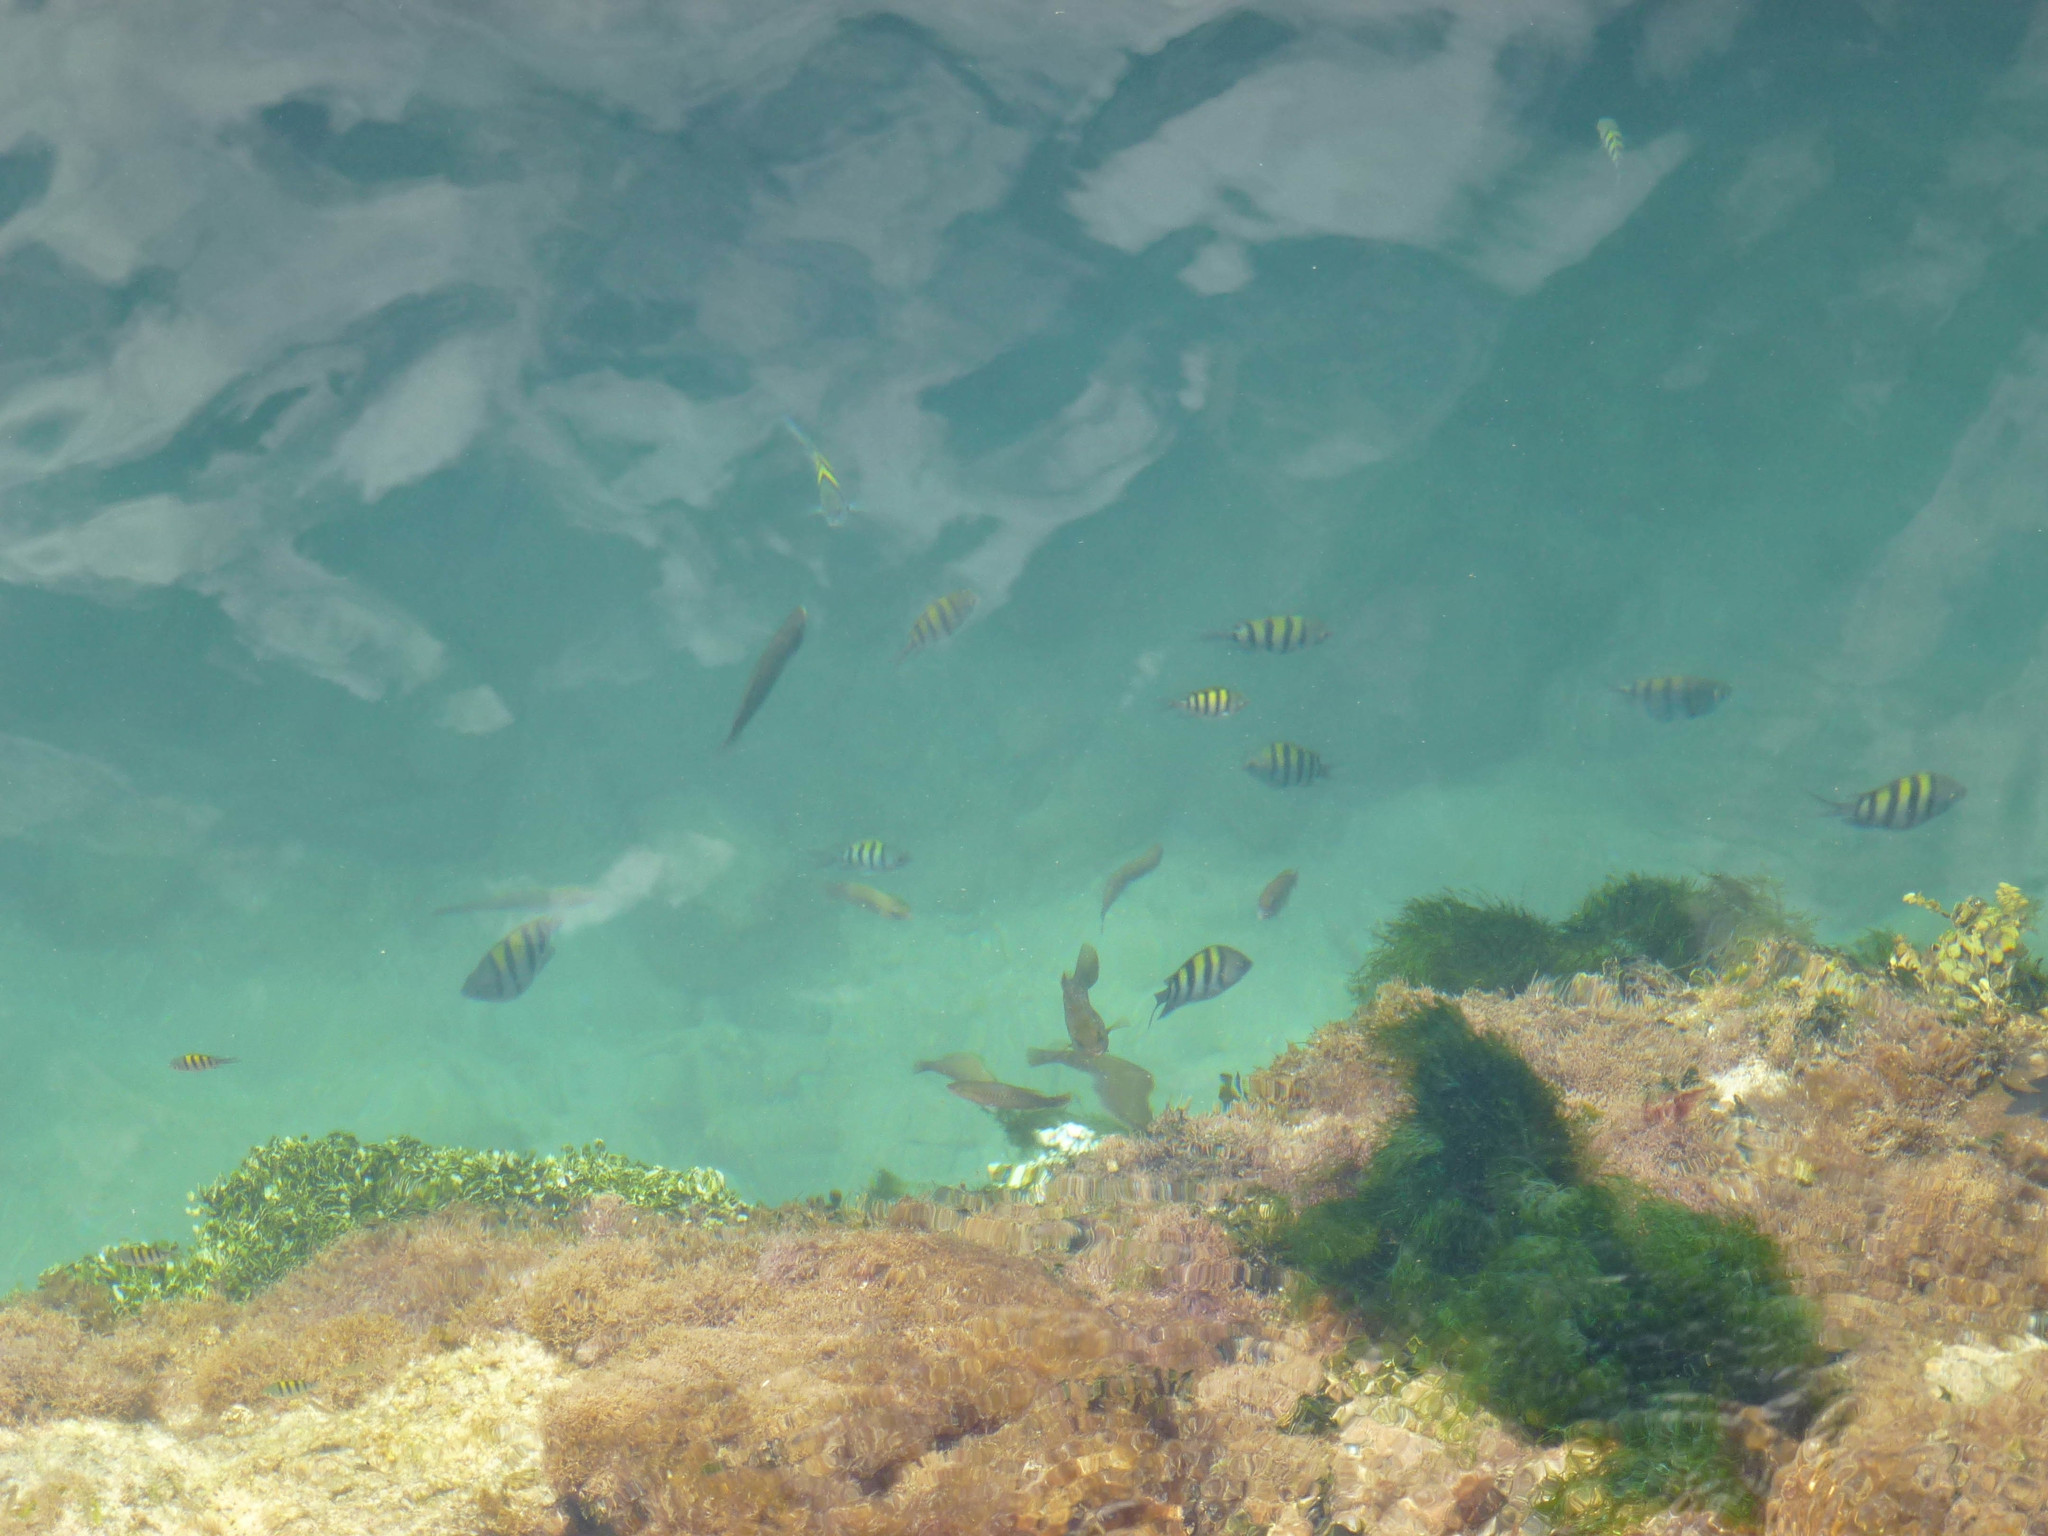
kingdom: Animalia
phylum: Chordata
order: Perciformes
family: Pomacentridae
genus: Abudefduf
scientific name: Abudefduf saxatilis
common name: Sergeant major
